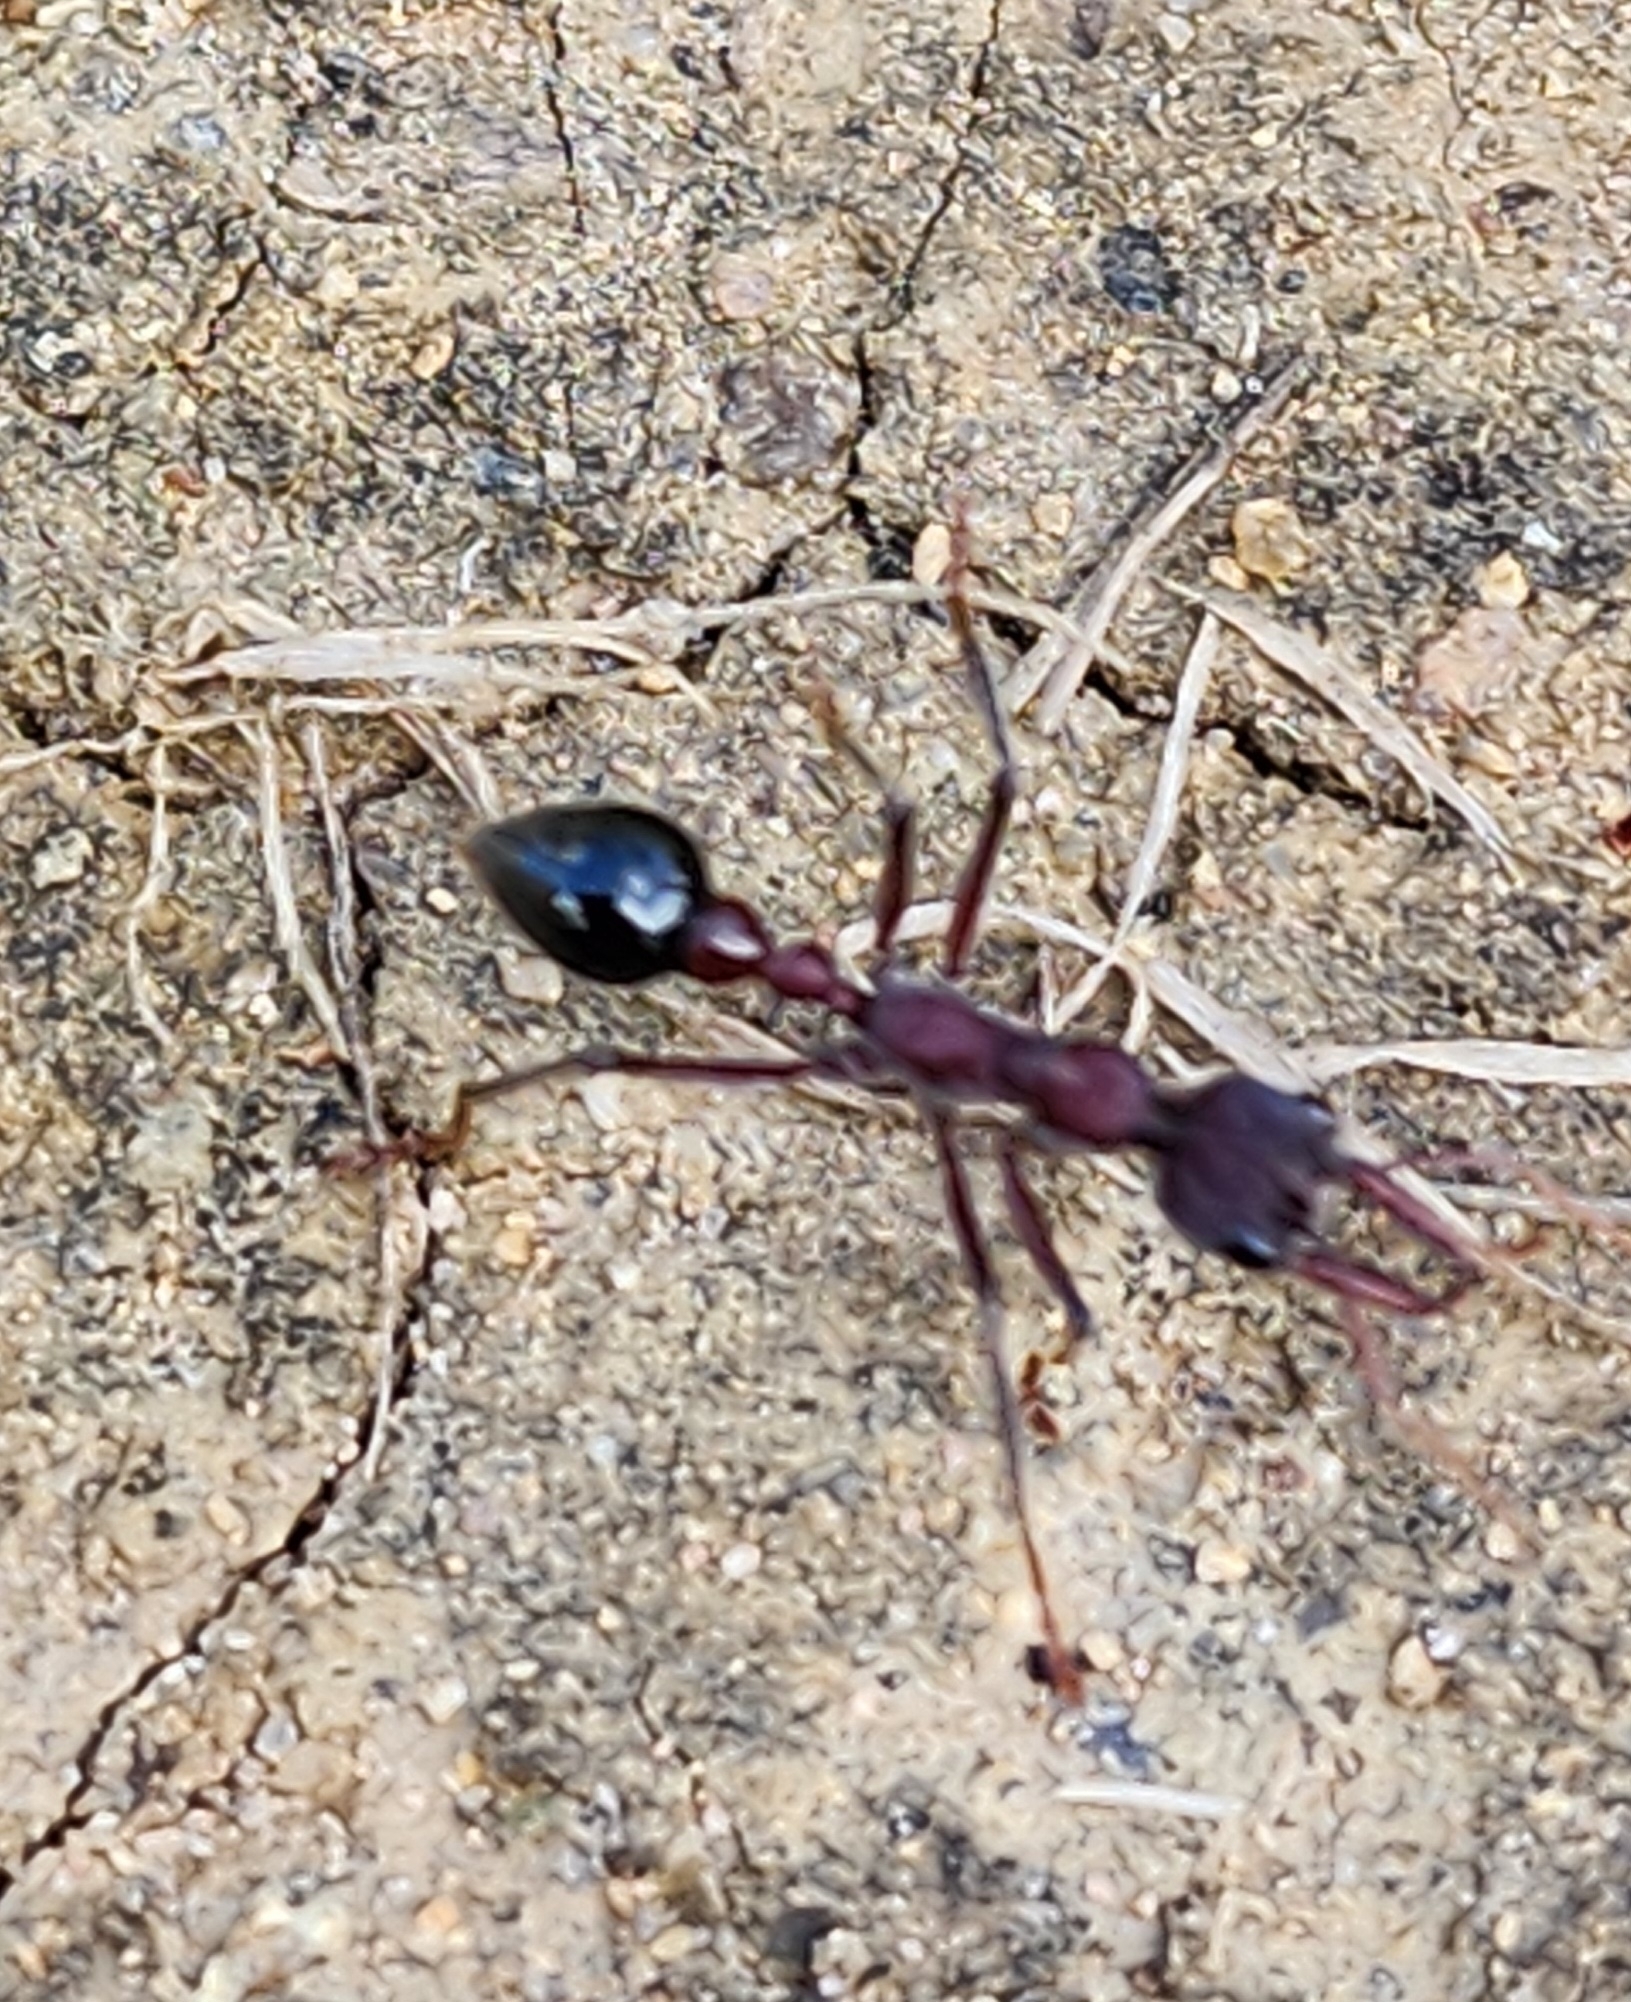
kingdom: Animalia
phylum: Arthropoda
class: Insecta
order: Hymenoptera
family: Formicidae
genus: Myrmecia
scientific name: Myrmecia simillima
